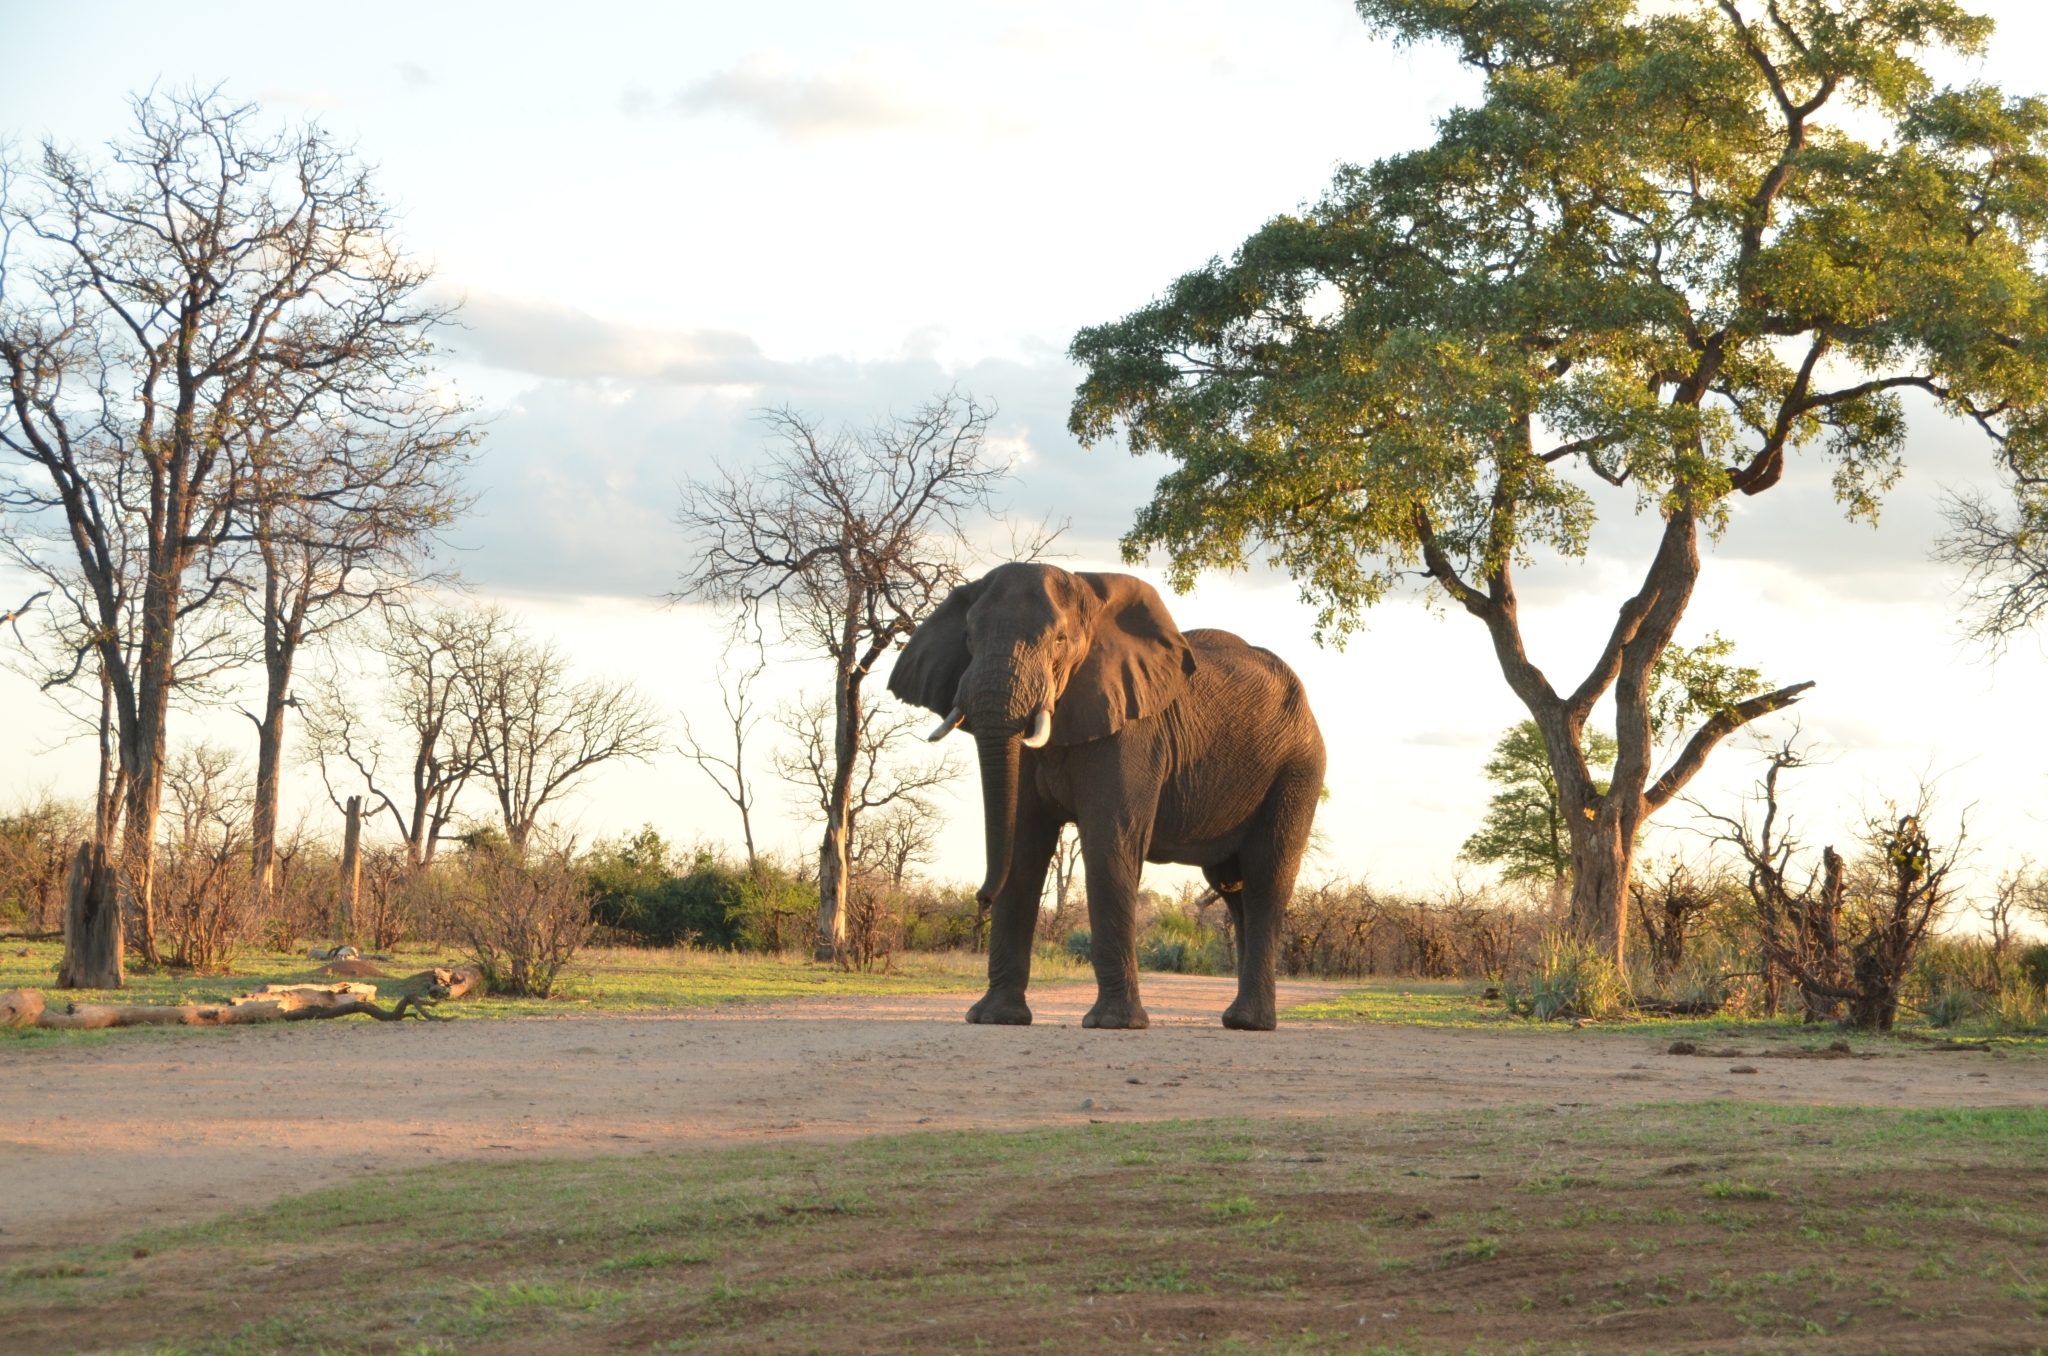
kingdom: Animalia
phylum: Chordata
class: Mammalia
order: Proboscidea
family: Elephantidae
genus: Loxodonta
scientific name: Loxodonta africana
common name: African elephant
